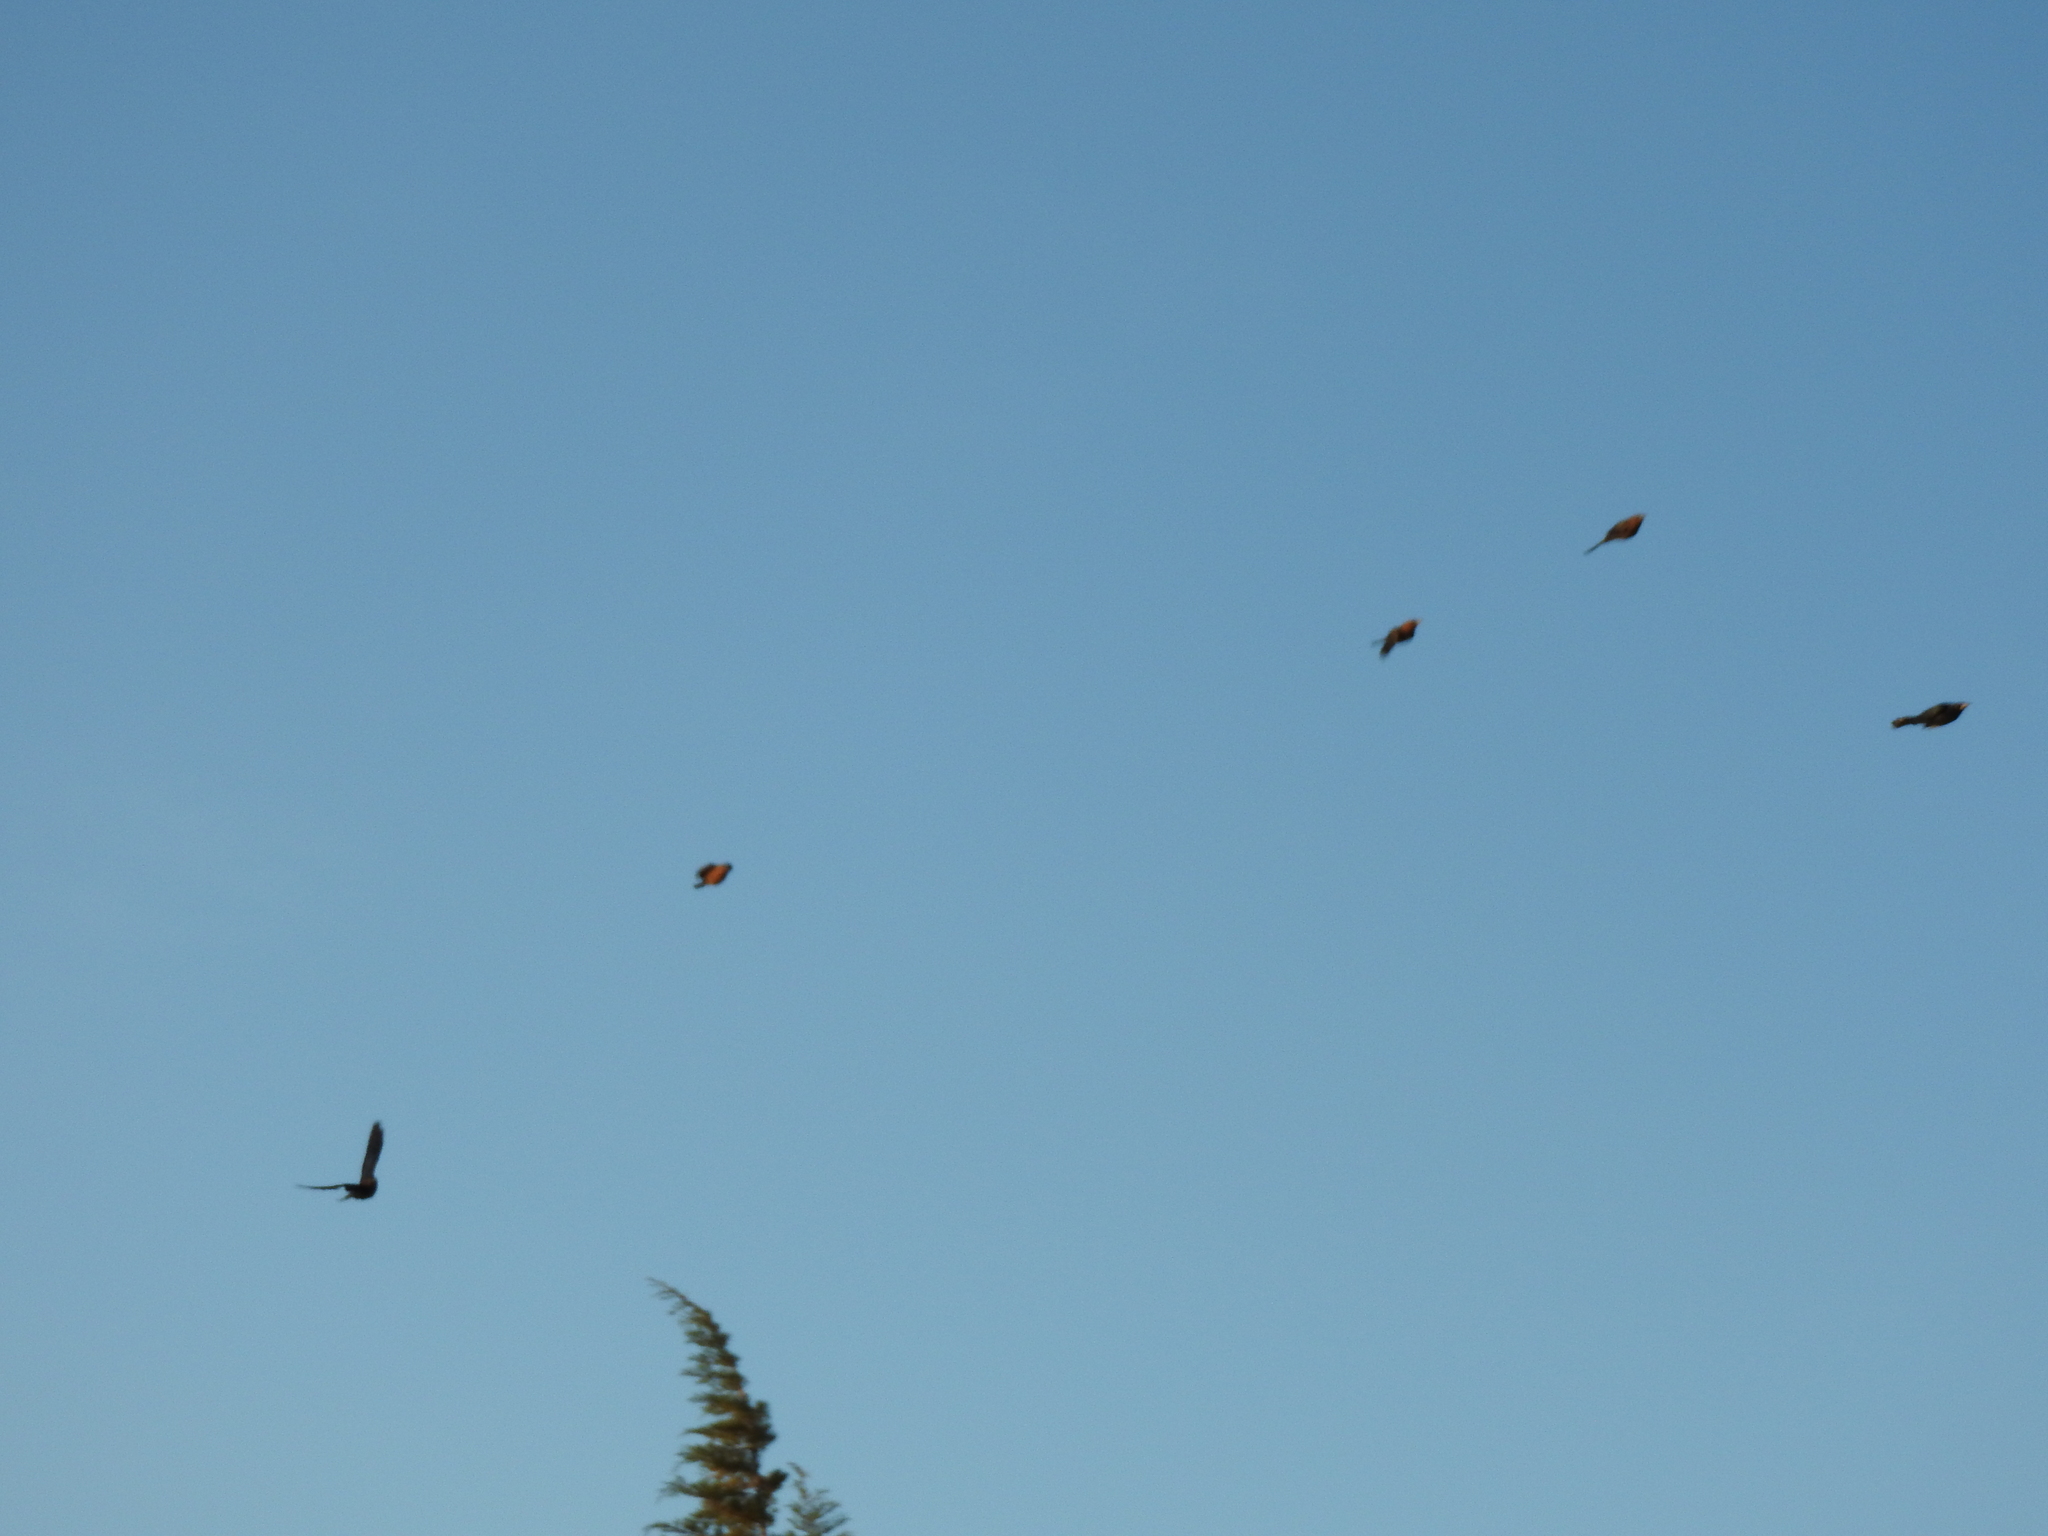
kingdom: Animalia
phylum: Chordata
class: Aves
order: Passeriformes
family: Icteridae
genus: Quiscalus
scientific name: Quiscalus mexicanus
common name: Great-tailed grackle
